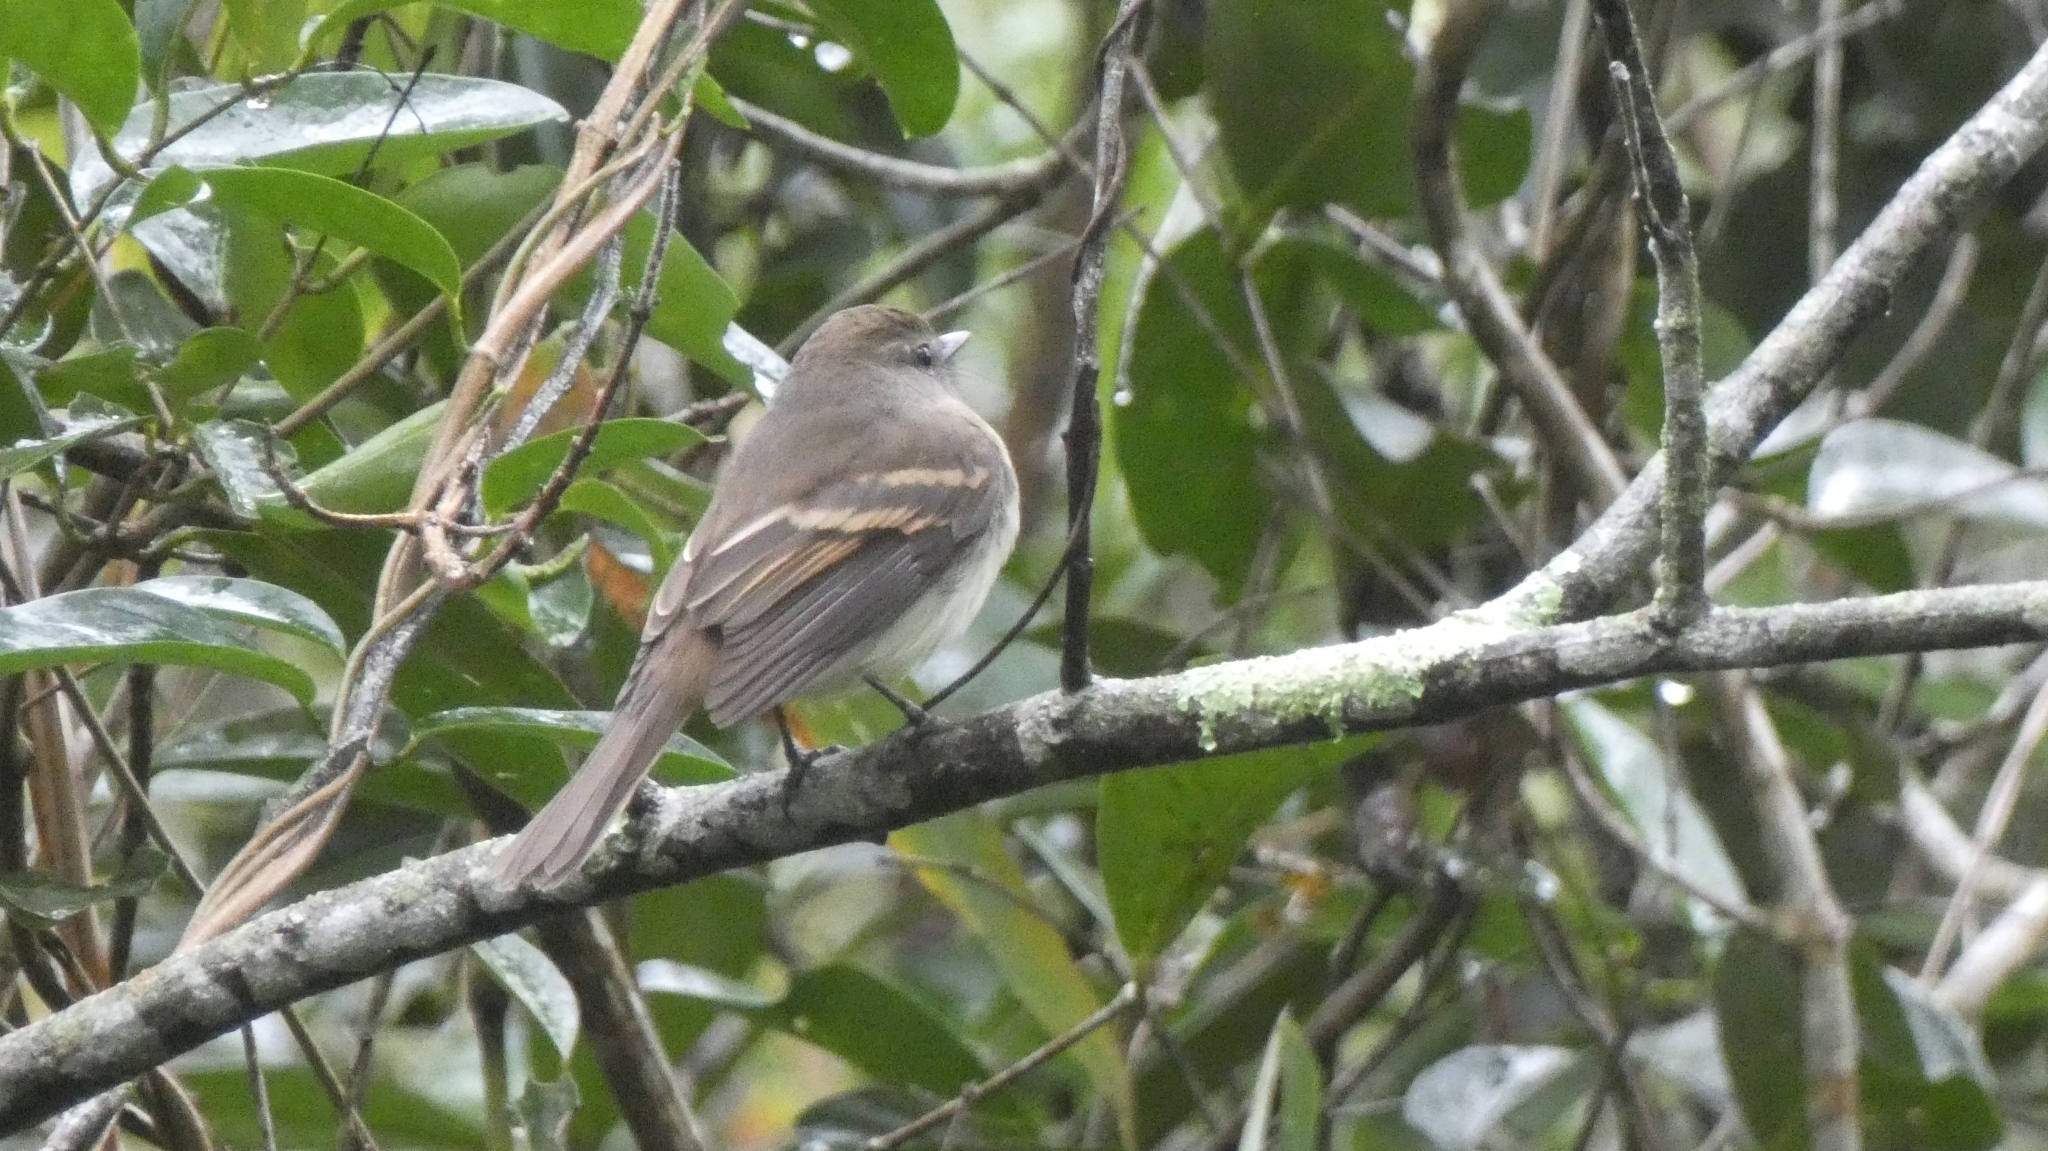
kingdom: Animalia
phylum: Chordata
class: Aves
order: Passeriformes
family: Tyrannidae
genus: Cnemotriccus
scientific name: Cnemotriccus fuscatus
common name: Fuscous flycatcher
